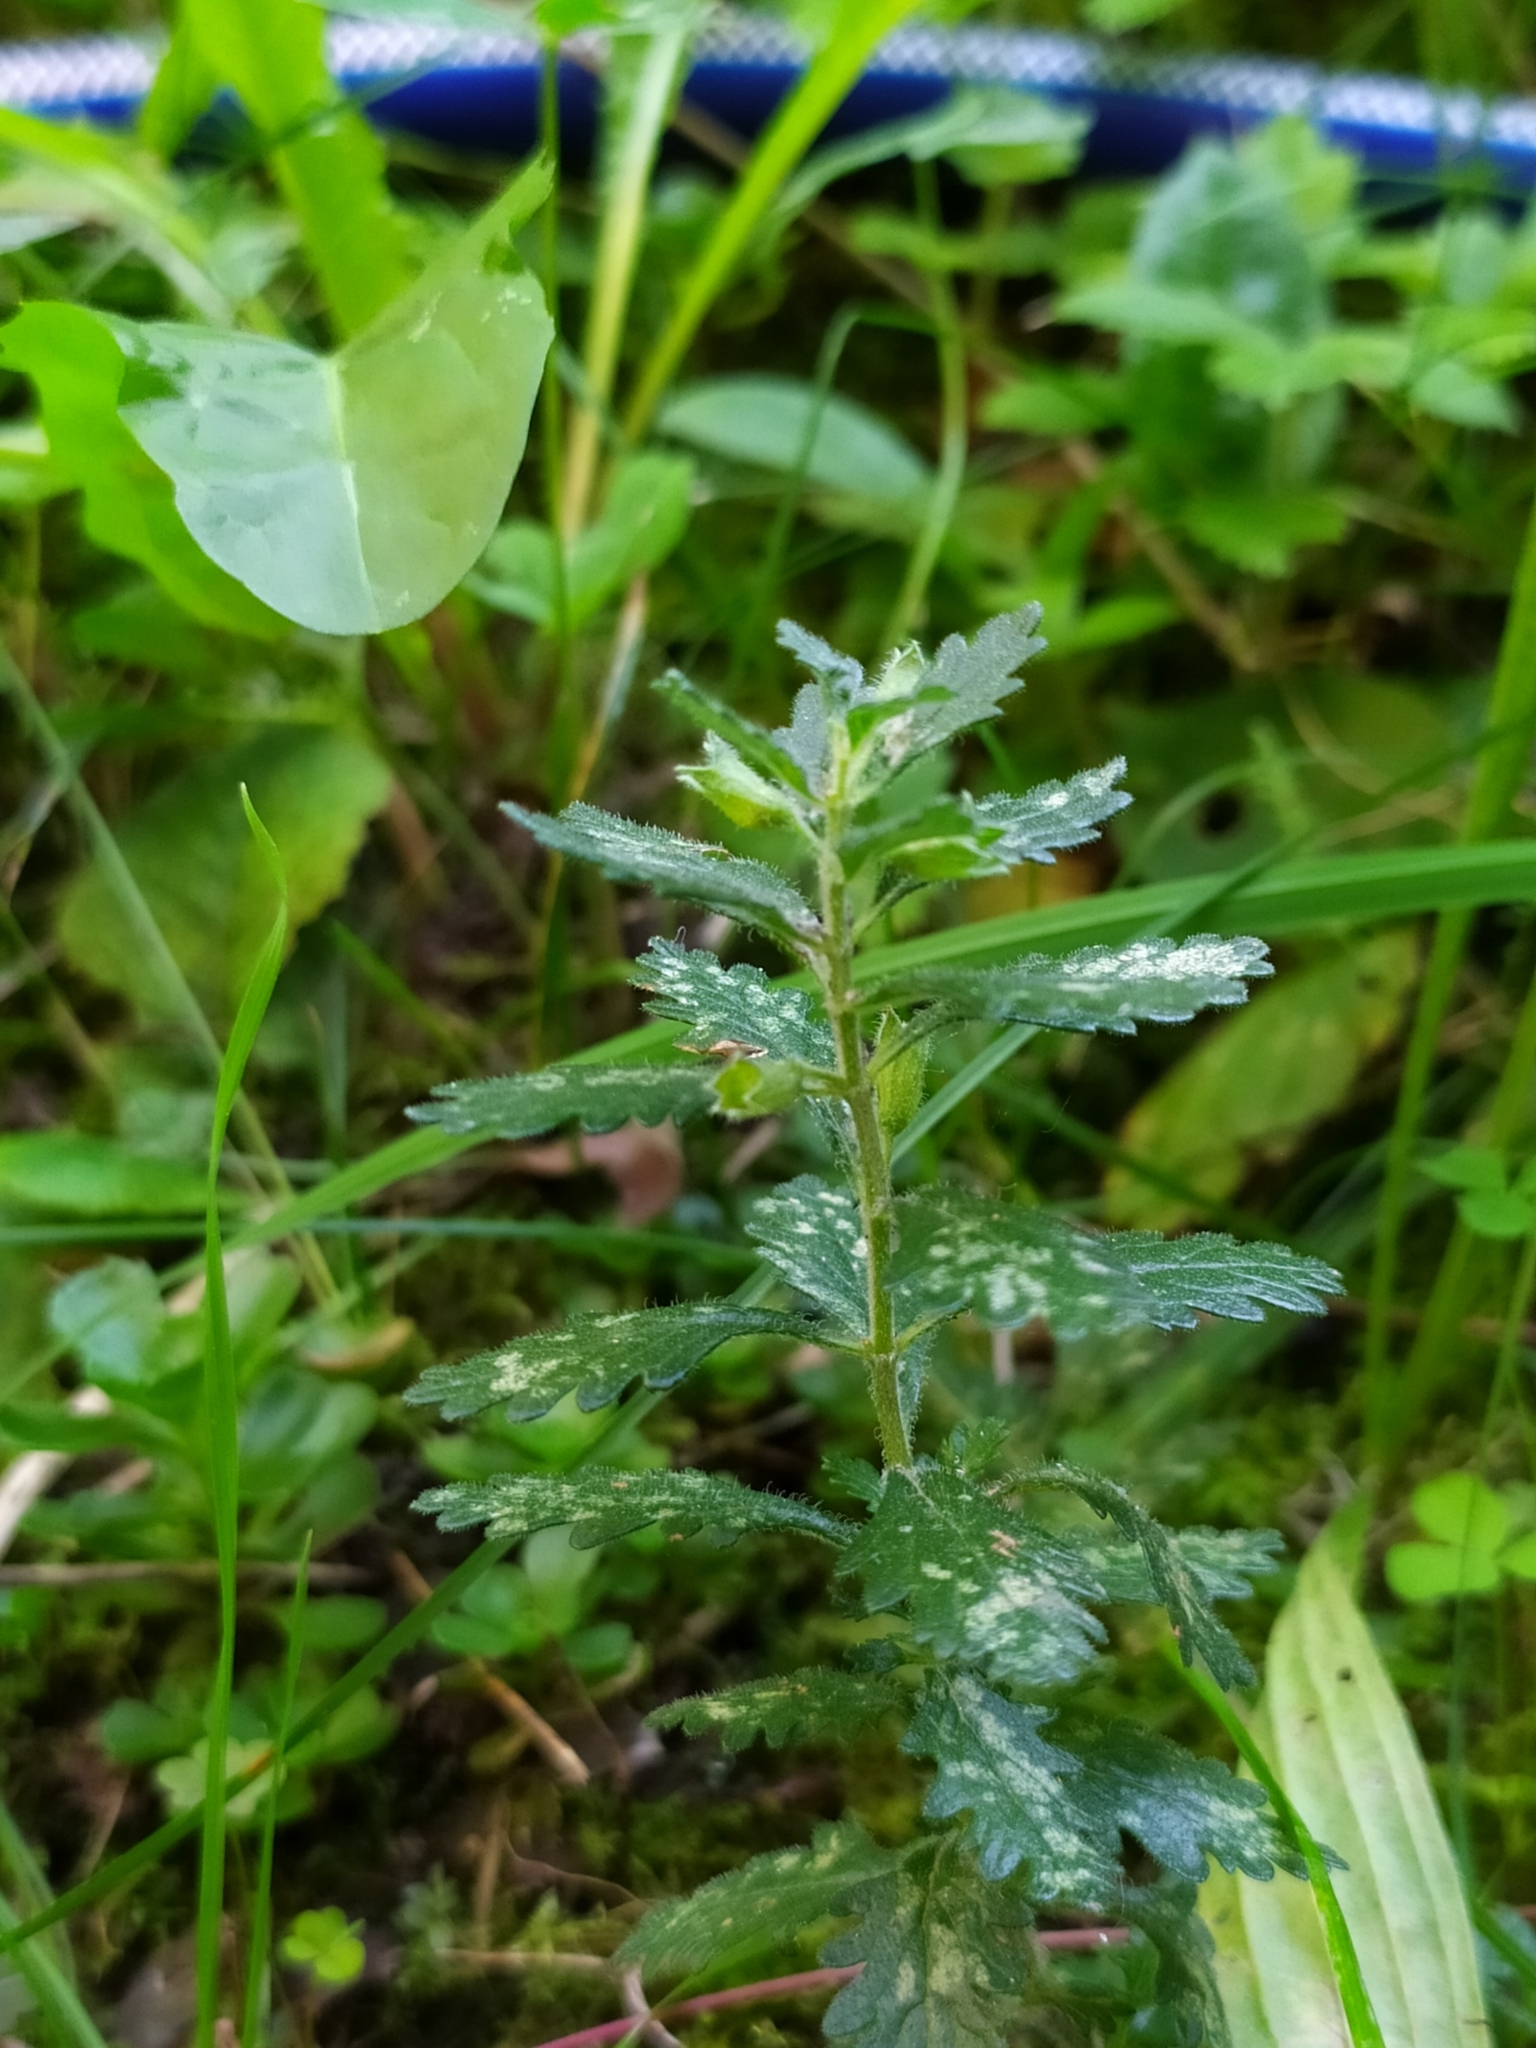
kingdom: Plantae
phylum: Tracheophyta
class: Magnoliopsida
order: Lamiales
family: Lamiaceae
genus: Teucrium
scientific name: Teucrium chamaedrys
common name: Wall germander
